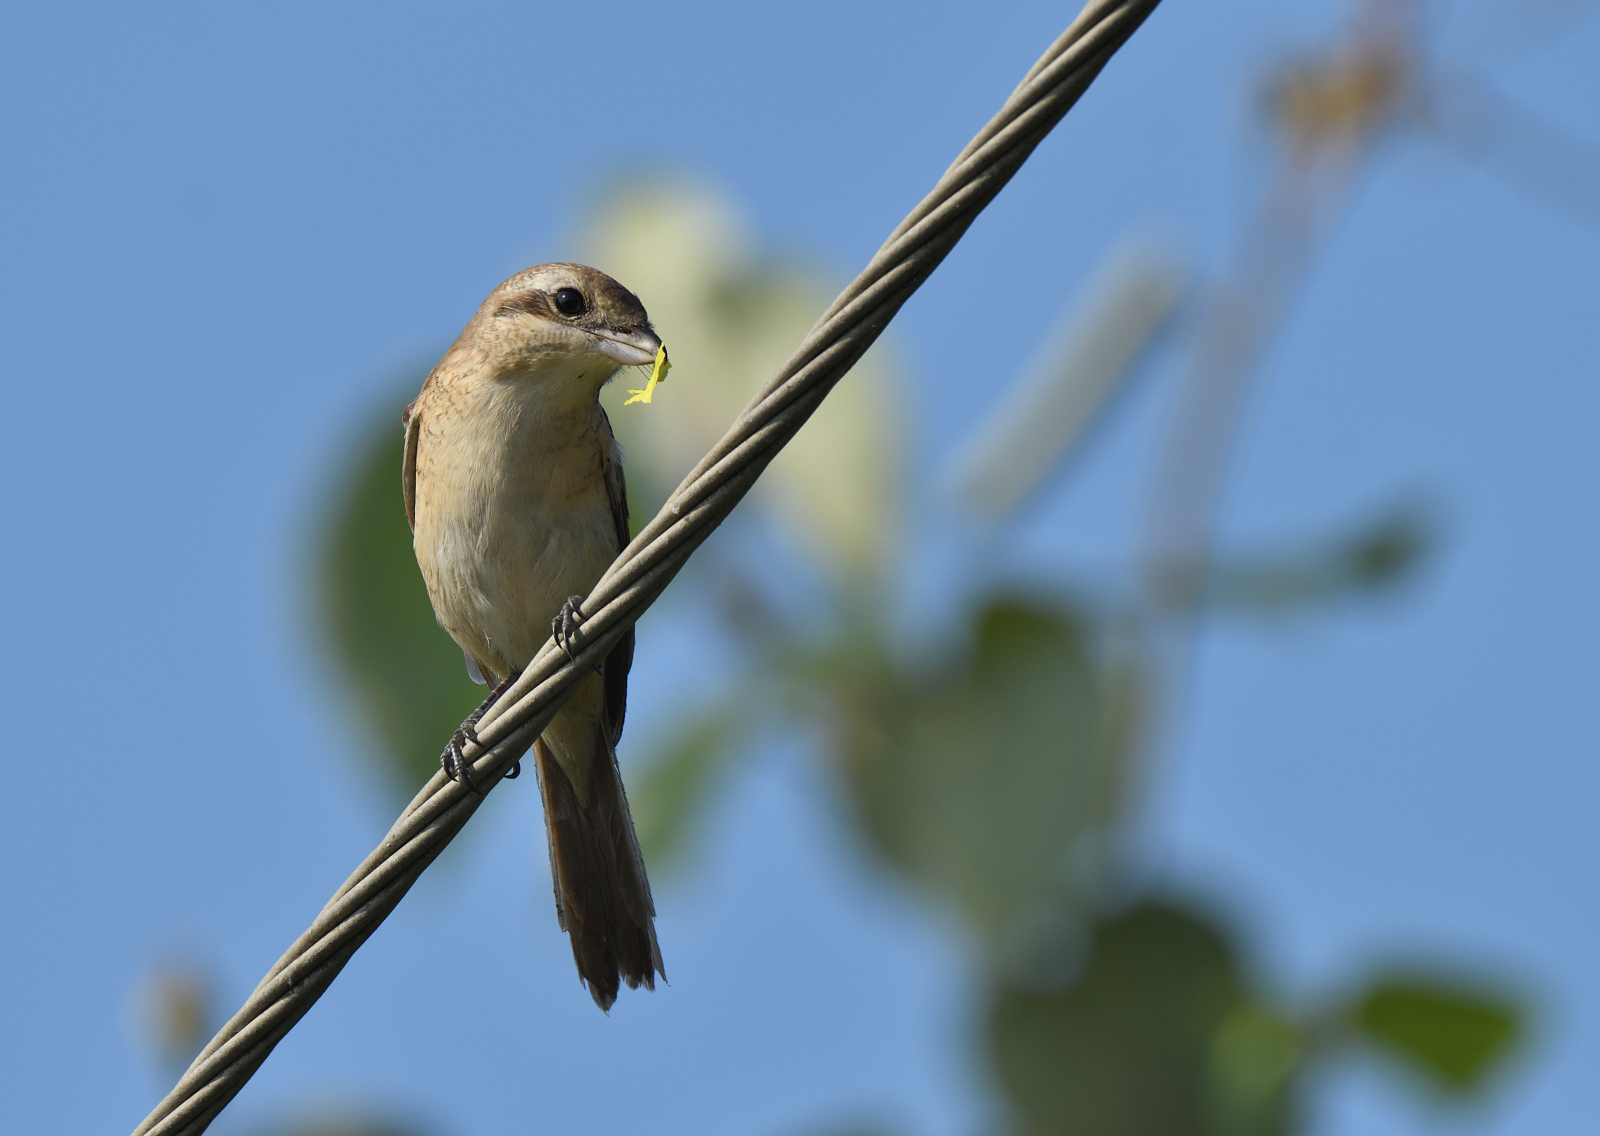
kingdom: Animalia
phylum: Chordata
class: Aves
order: Passeriformes
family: Laniidae
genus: Lanius
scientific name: Lanius cristatus
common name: Brown shrike
